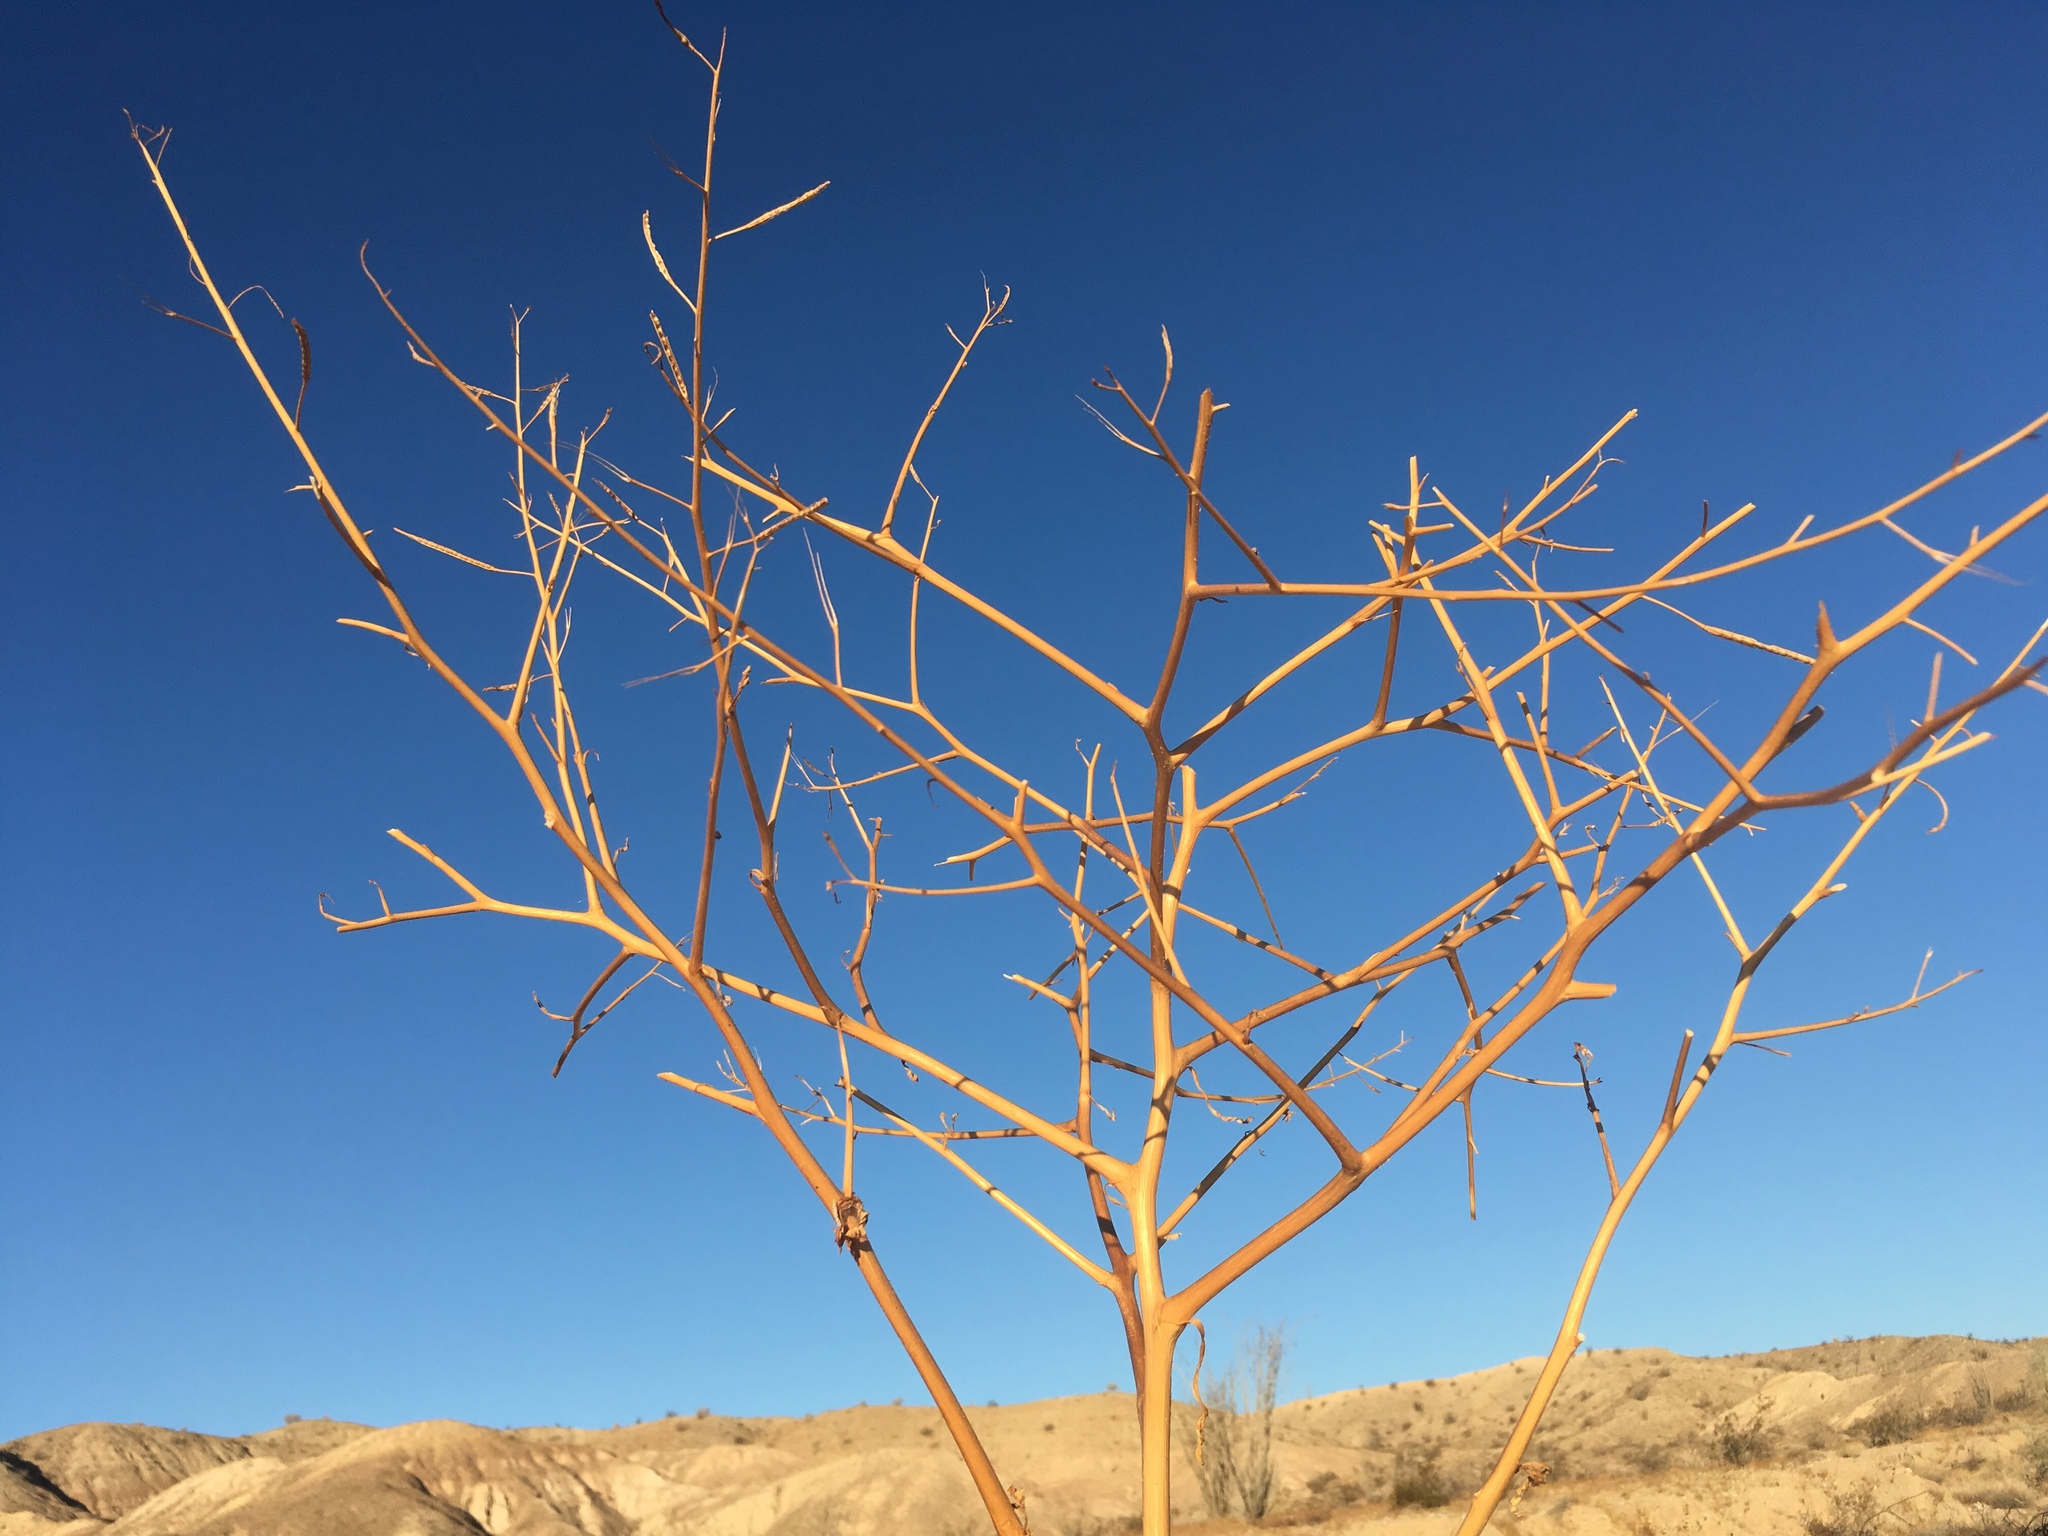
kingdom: Plantae
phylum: Tracheophyta
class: Magnoliopsida
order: Brassicales
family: Brassicaceae
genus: Brassica
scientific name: Brassica tournefortii
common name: Pale cabbage
